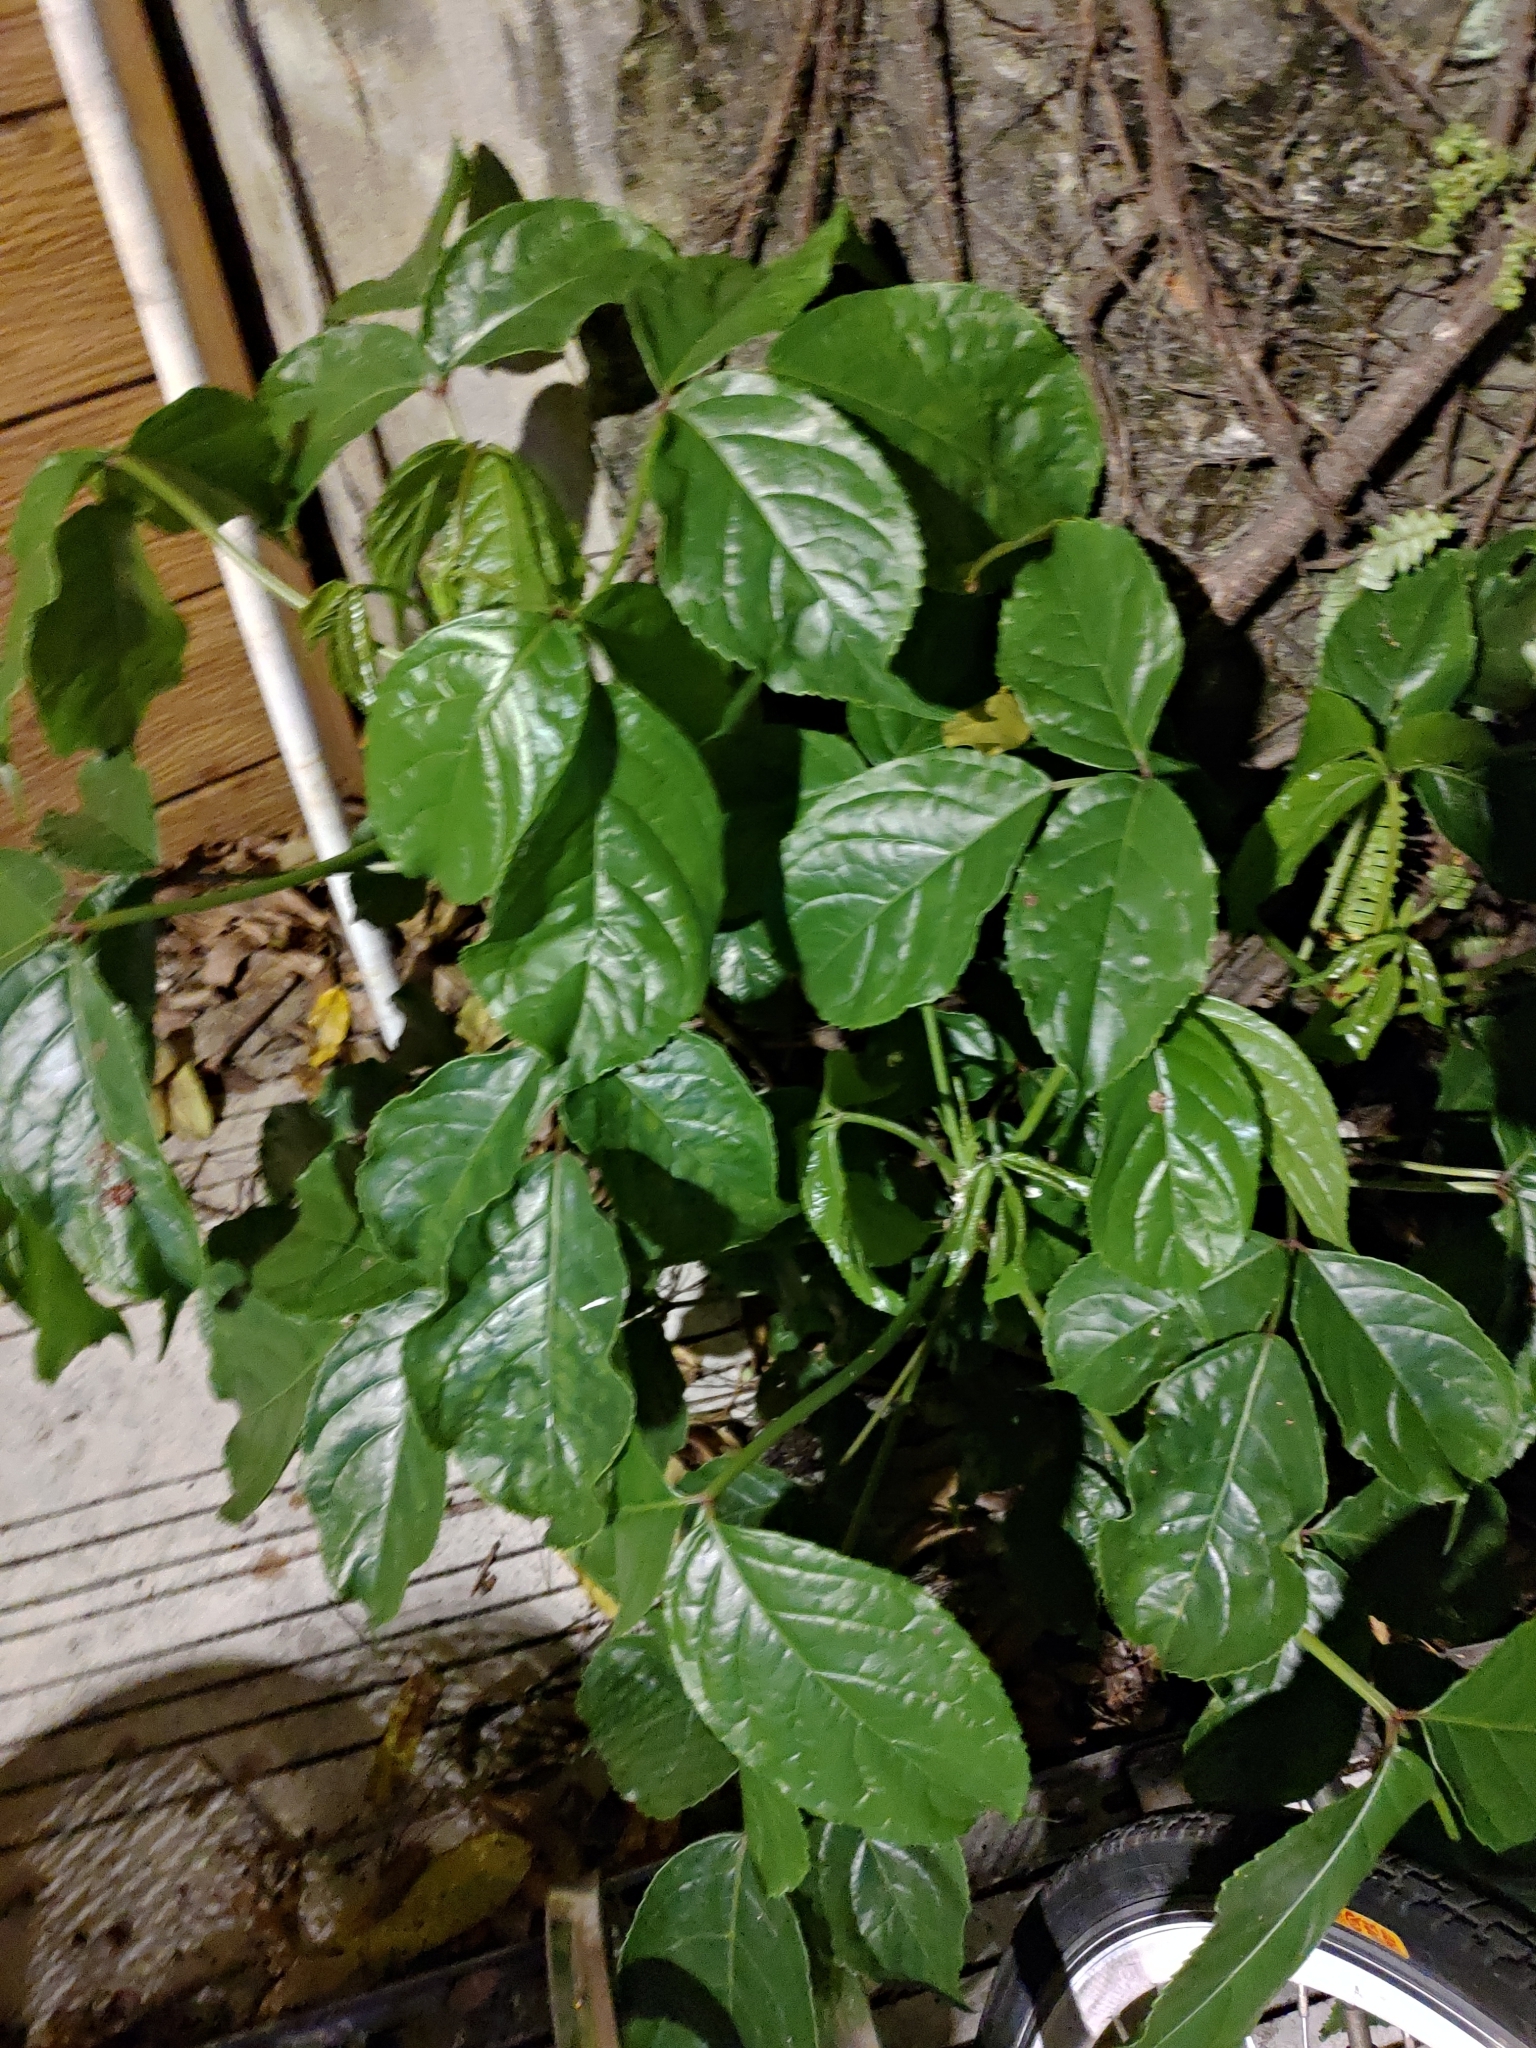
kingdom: Plantae
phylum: Tracheophyta
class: Magnoliopsida
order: Malpighiales
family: Phyllanthaceae
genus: Bischofia
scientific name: Bischofia javanica
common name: Javanese bishopwood
